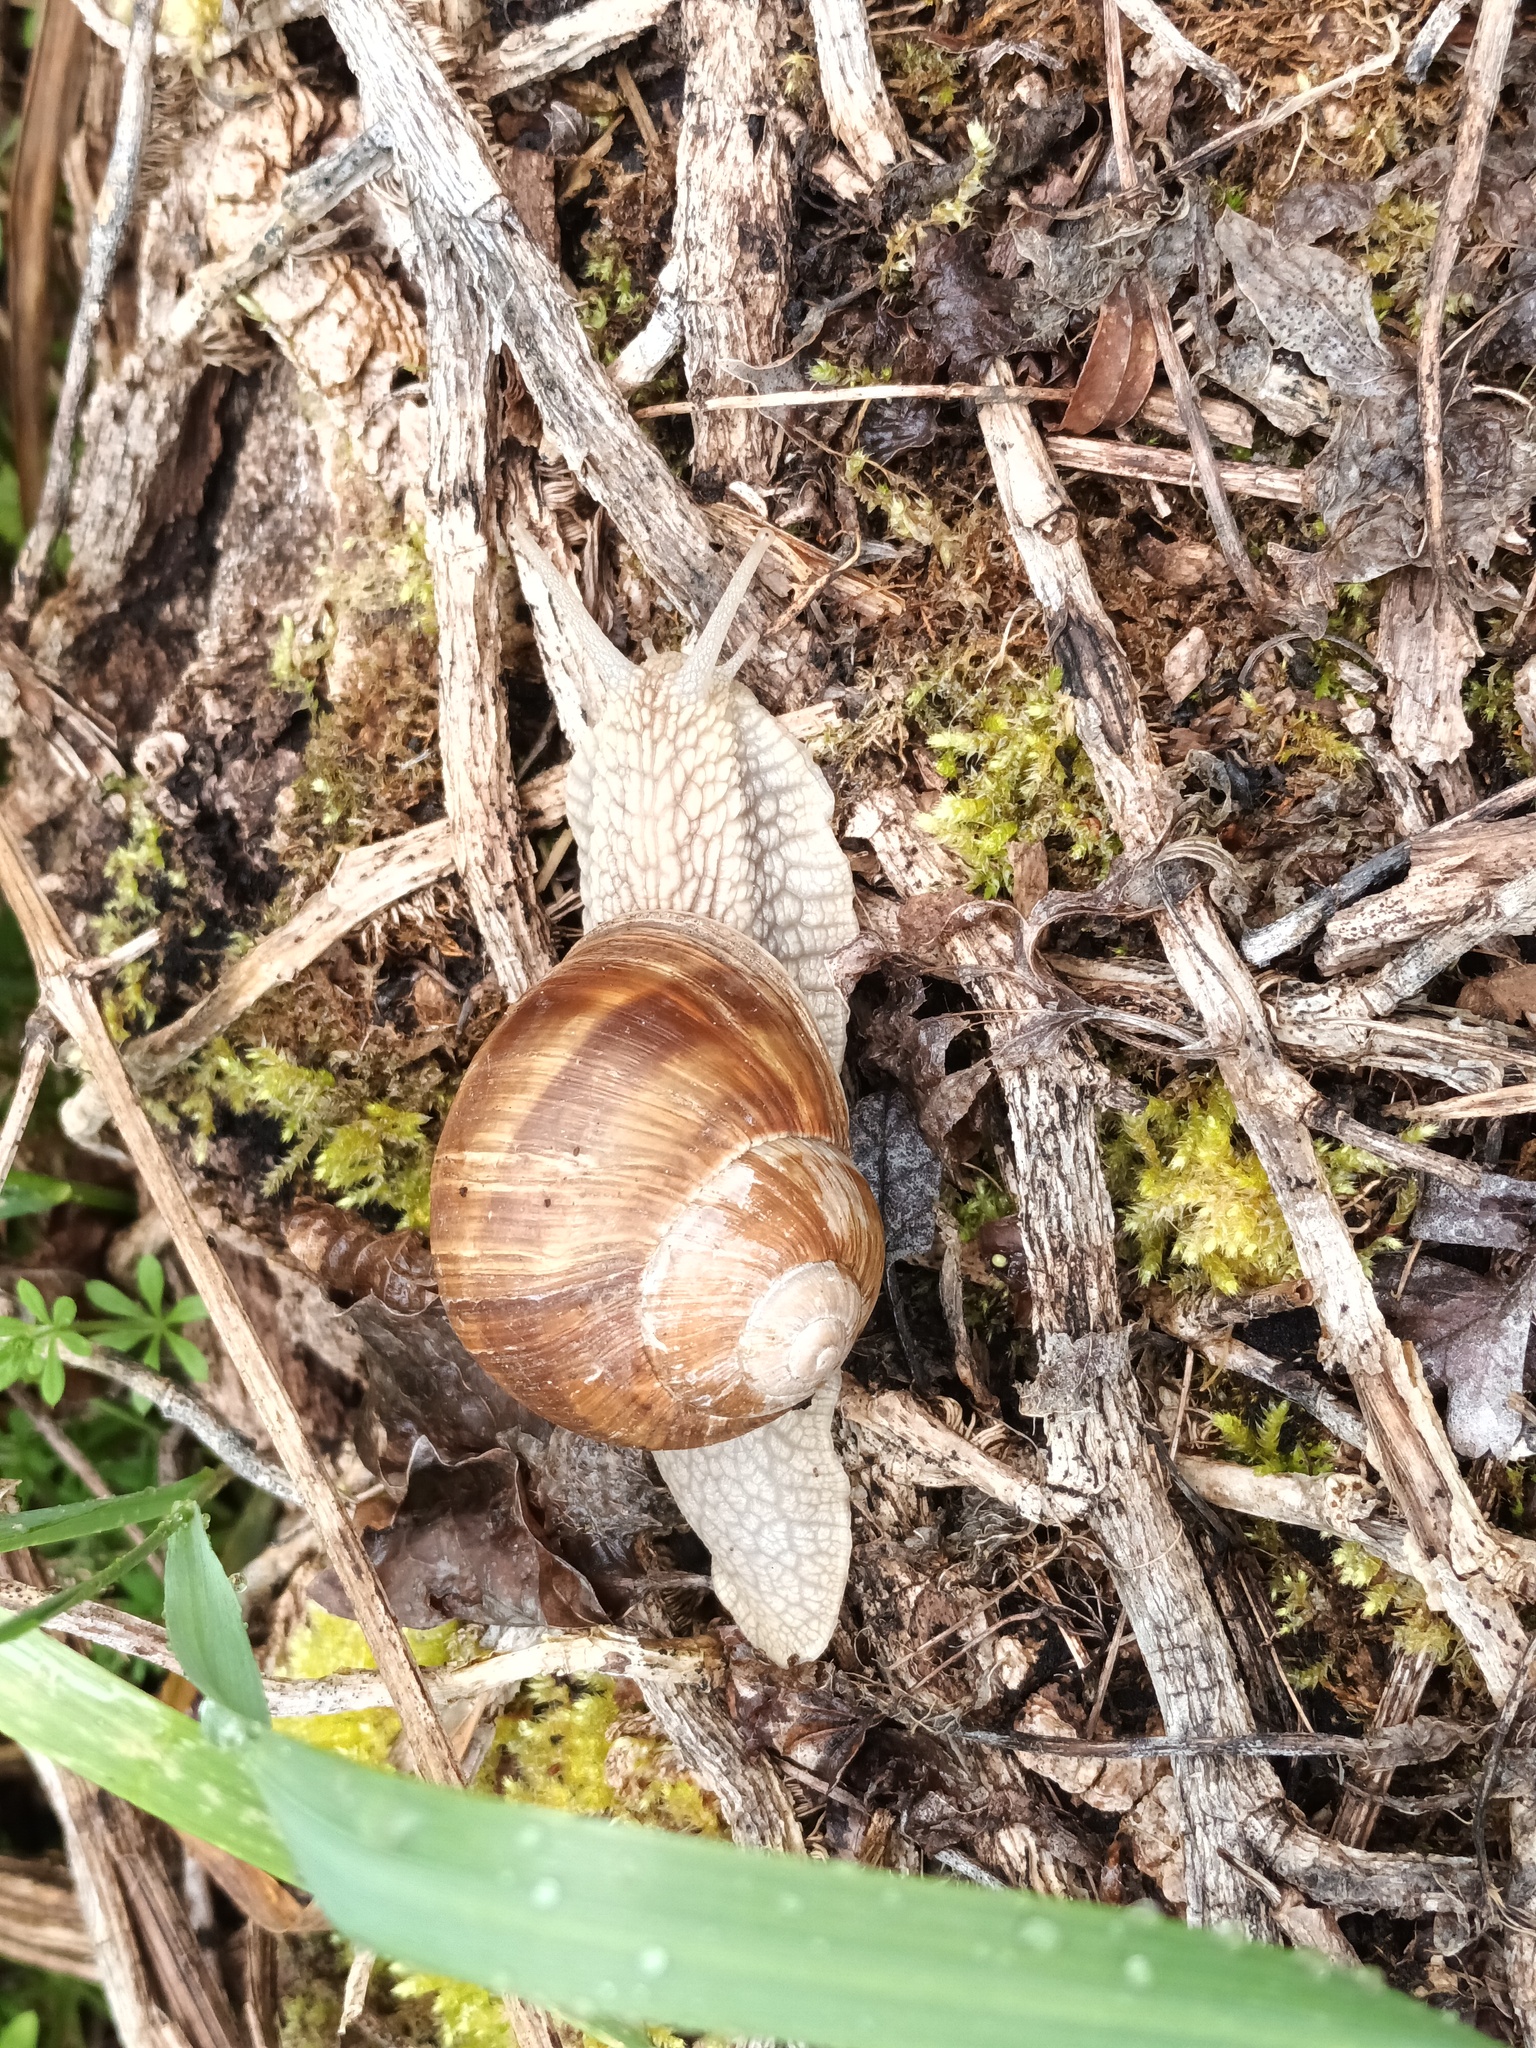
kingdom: Animalia
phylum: Mollusca
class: Gastropoda
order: Stylommatophora
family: Helicidae
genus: Helix
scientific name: Helix pomatia
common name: Roman snail
